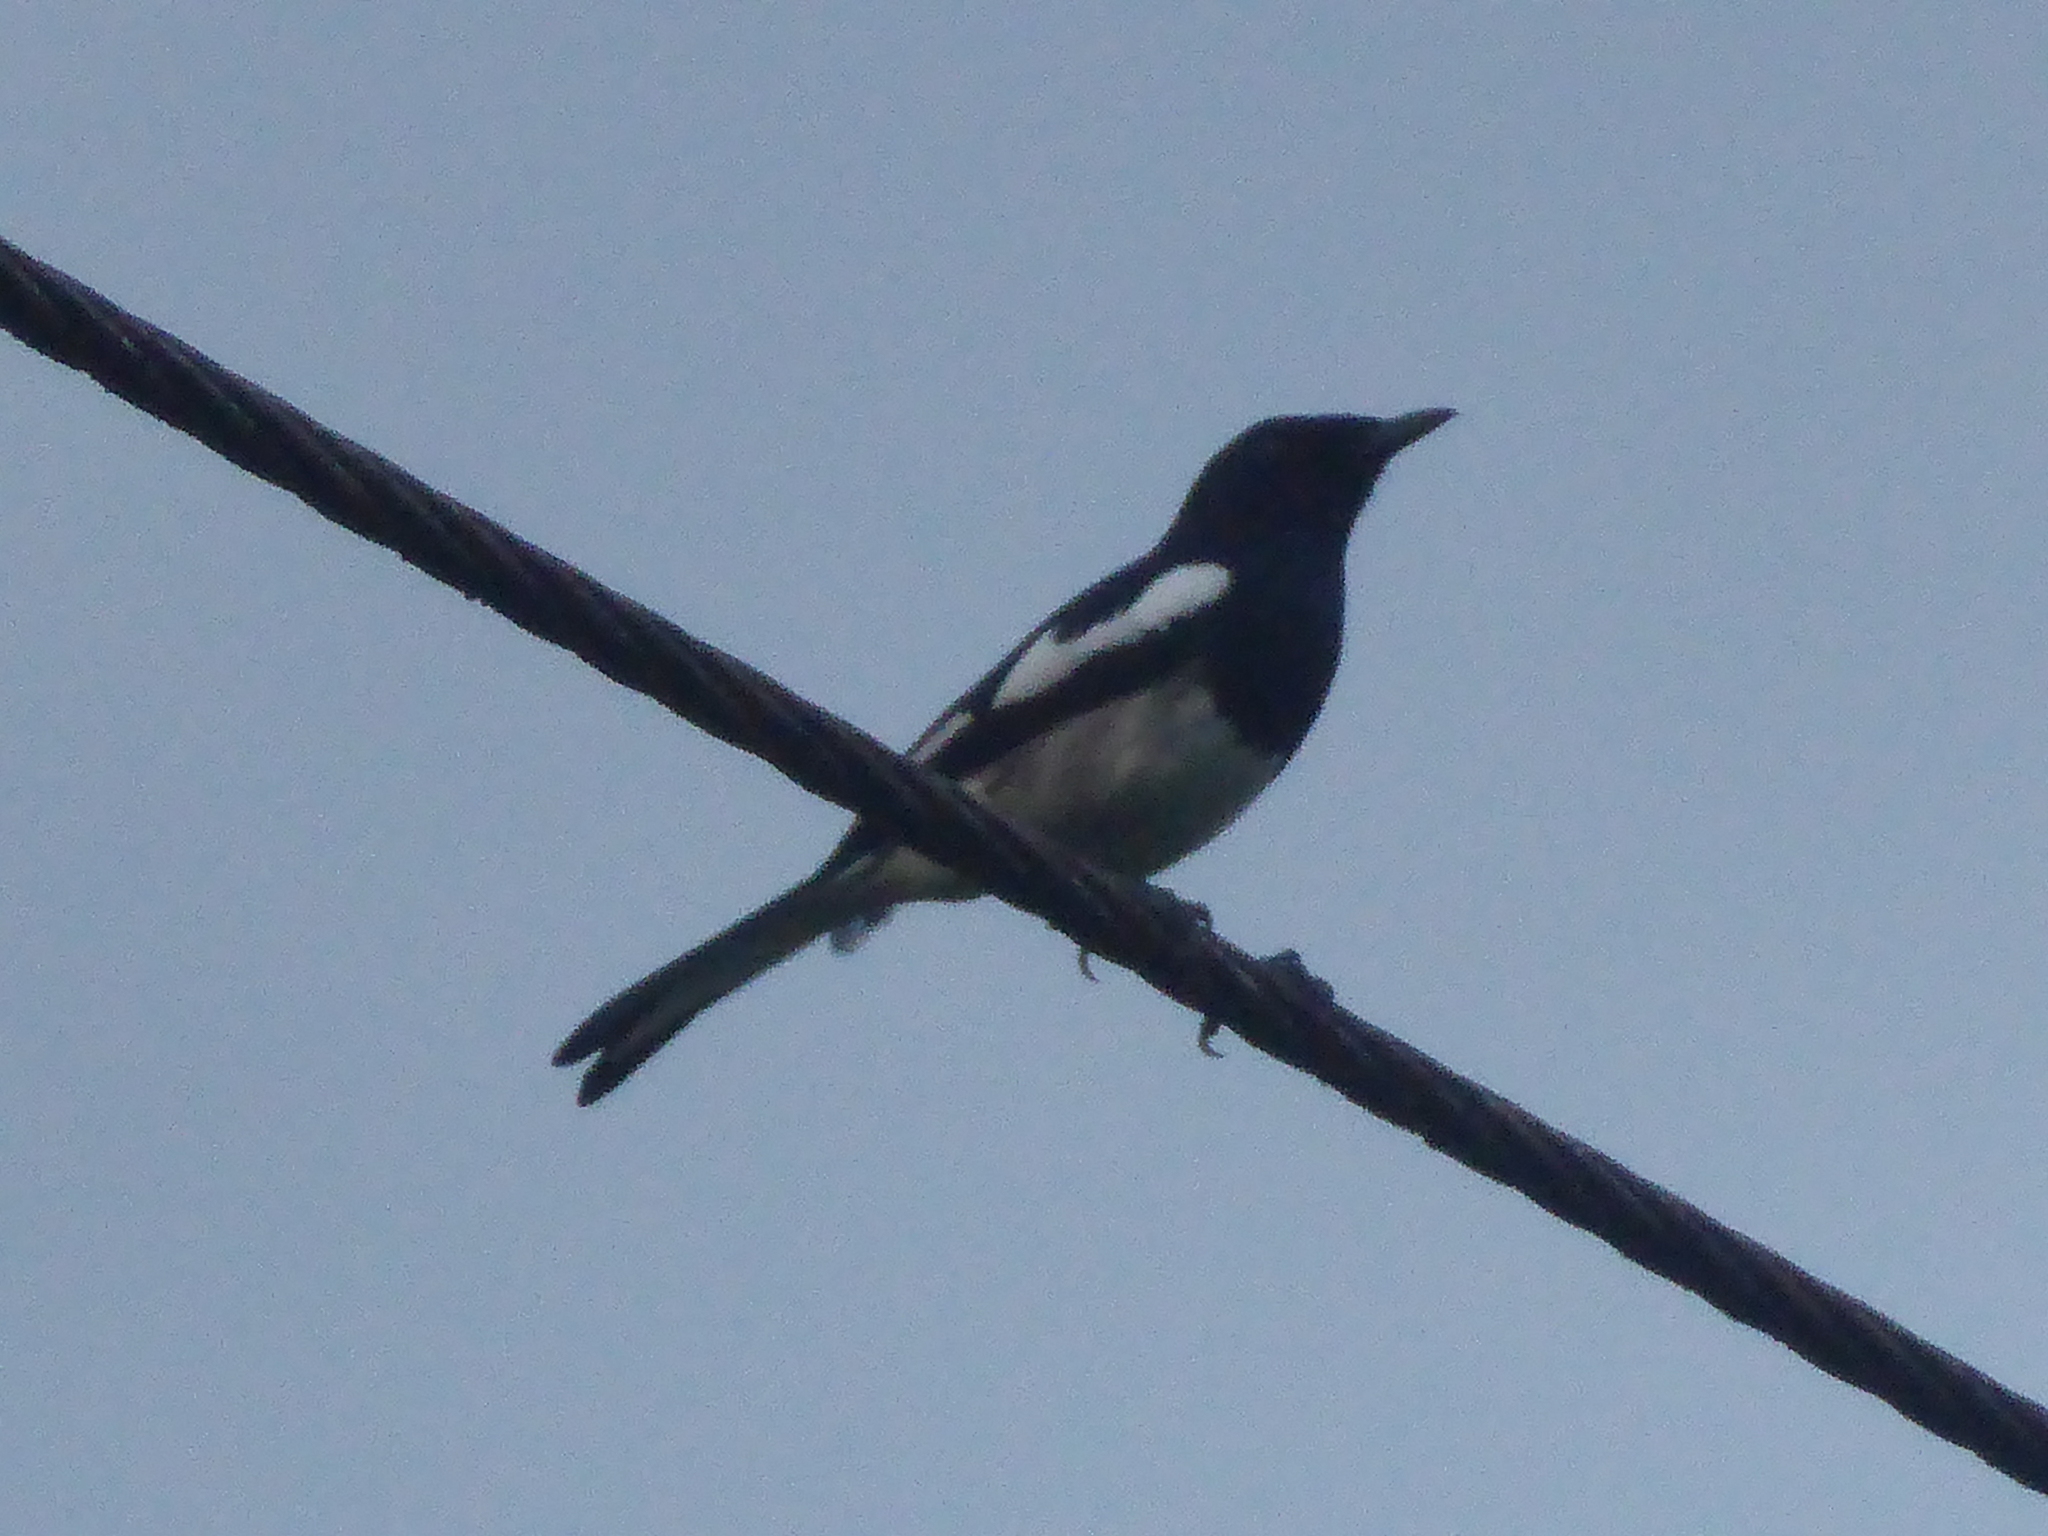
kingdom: Animalia
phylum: Chordata
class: Aves
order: Passeriformes
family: Muscicapidae
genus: Copsychus
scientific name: Copsychus saularis
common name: Oriental magpie-robin
